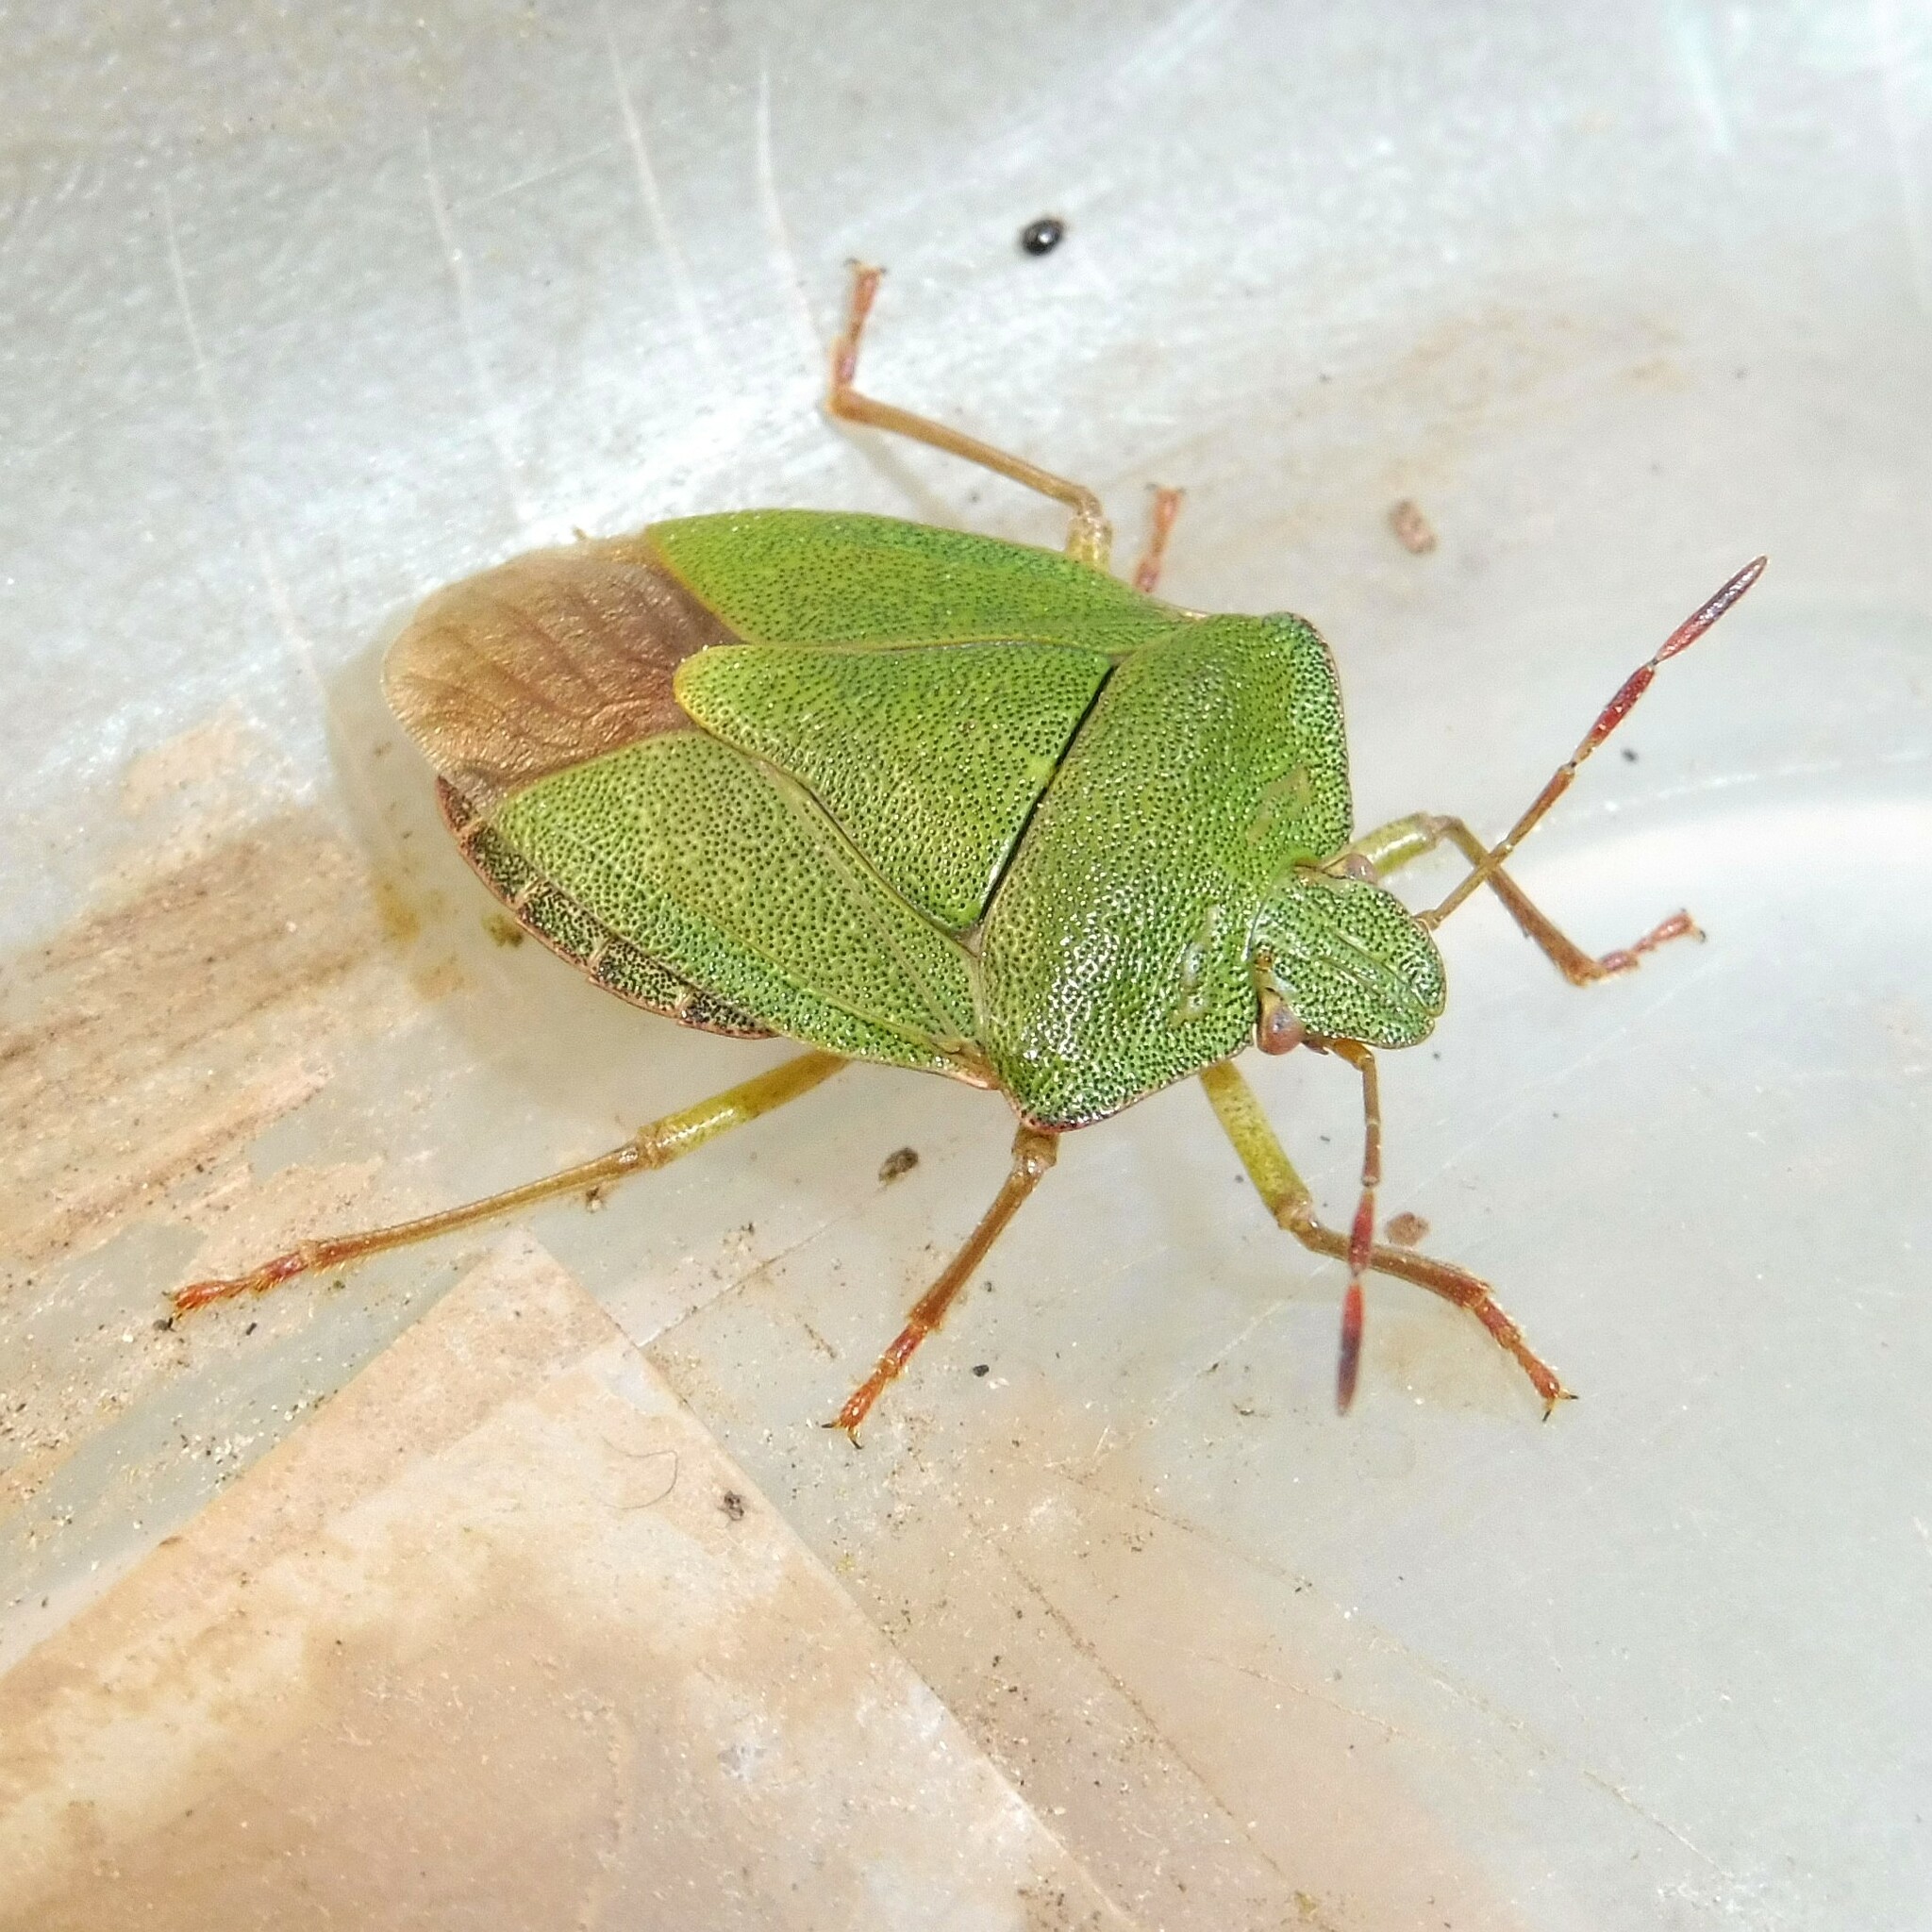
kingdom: Animalia
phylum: Arthropoda
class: Insecta
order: Hemiptera
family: Pentatomidae
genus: Palomena
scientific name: Palomena prasina
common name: Green shieldbug
